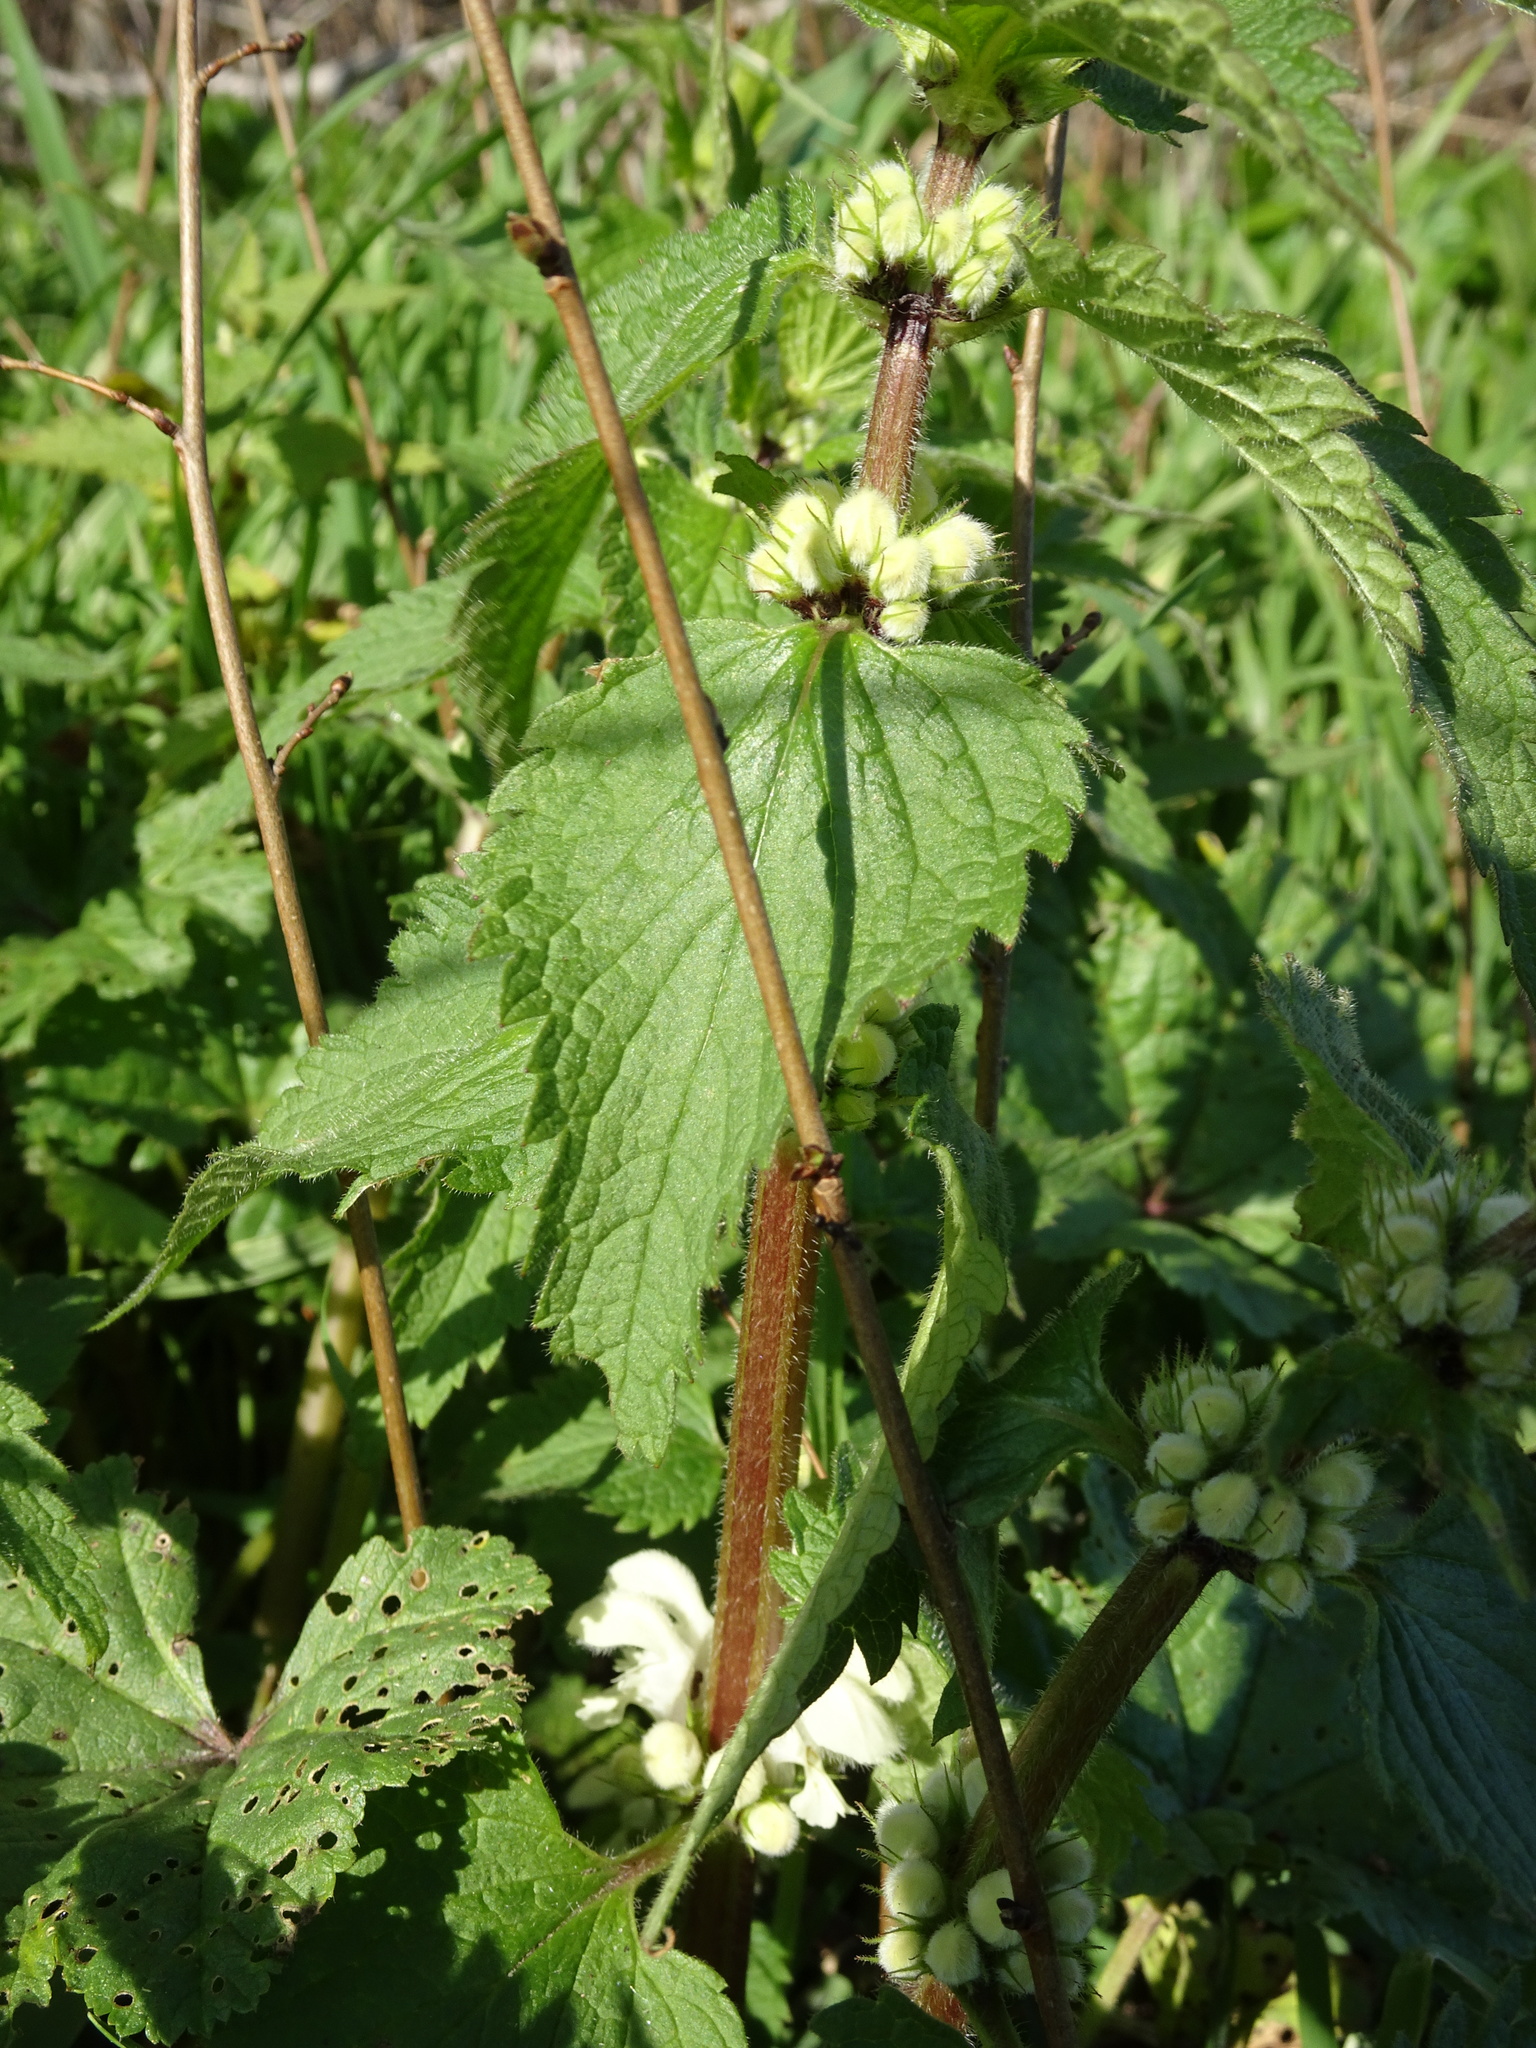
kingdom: Plantae
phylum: Tracheophyta
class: Magnoliopsida
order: Lamiales
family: Lamiaceae
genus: Lamium
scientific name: Lamium album
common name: White dead-nettle
